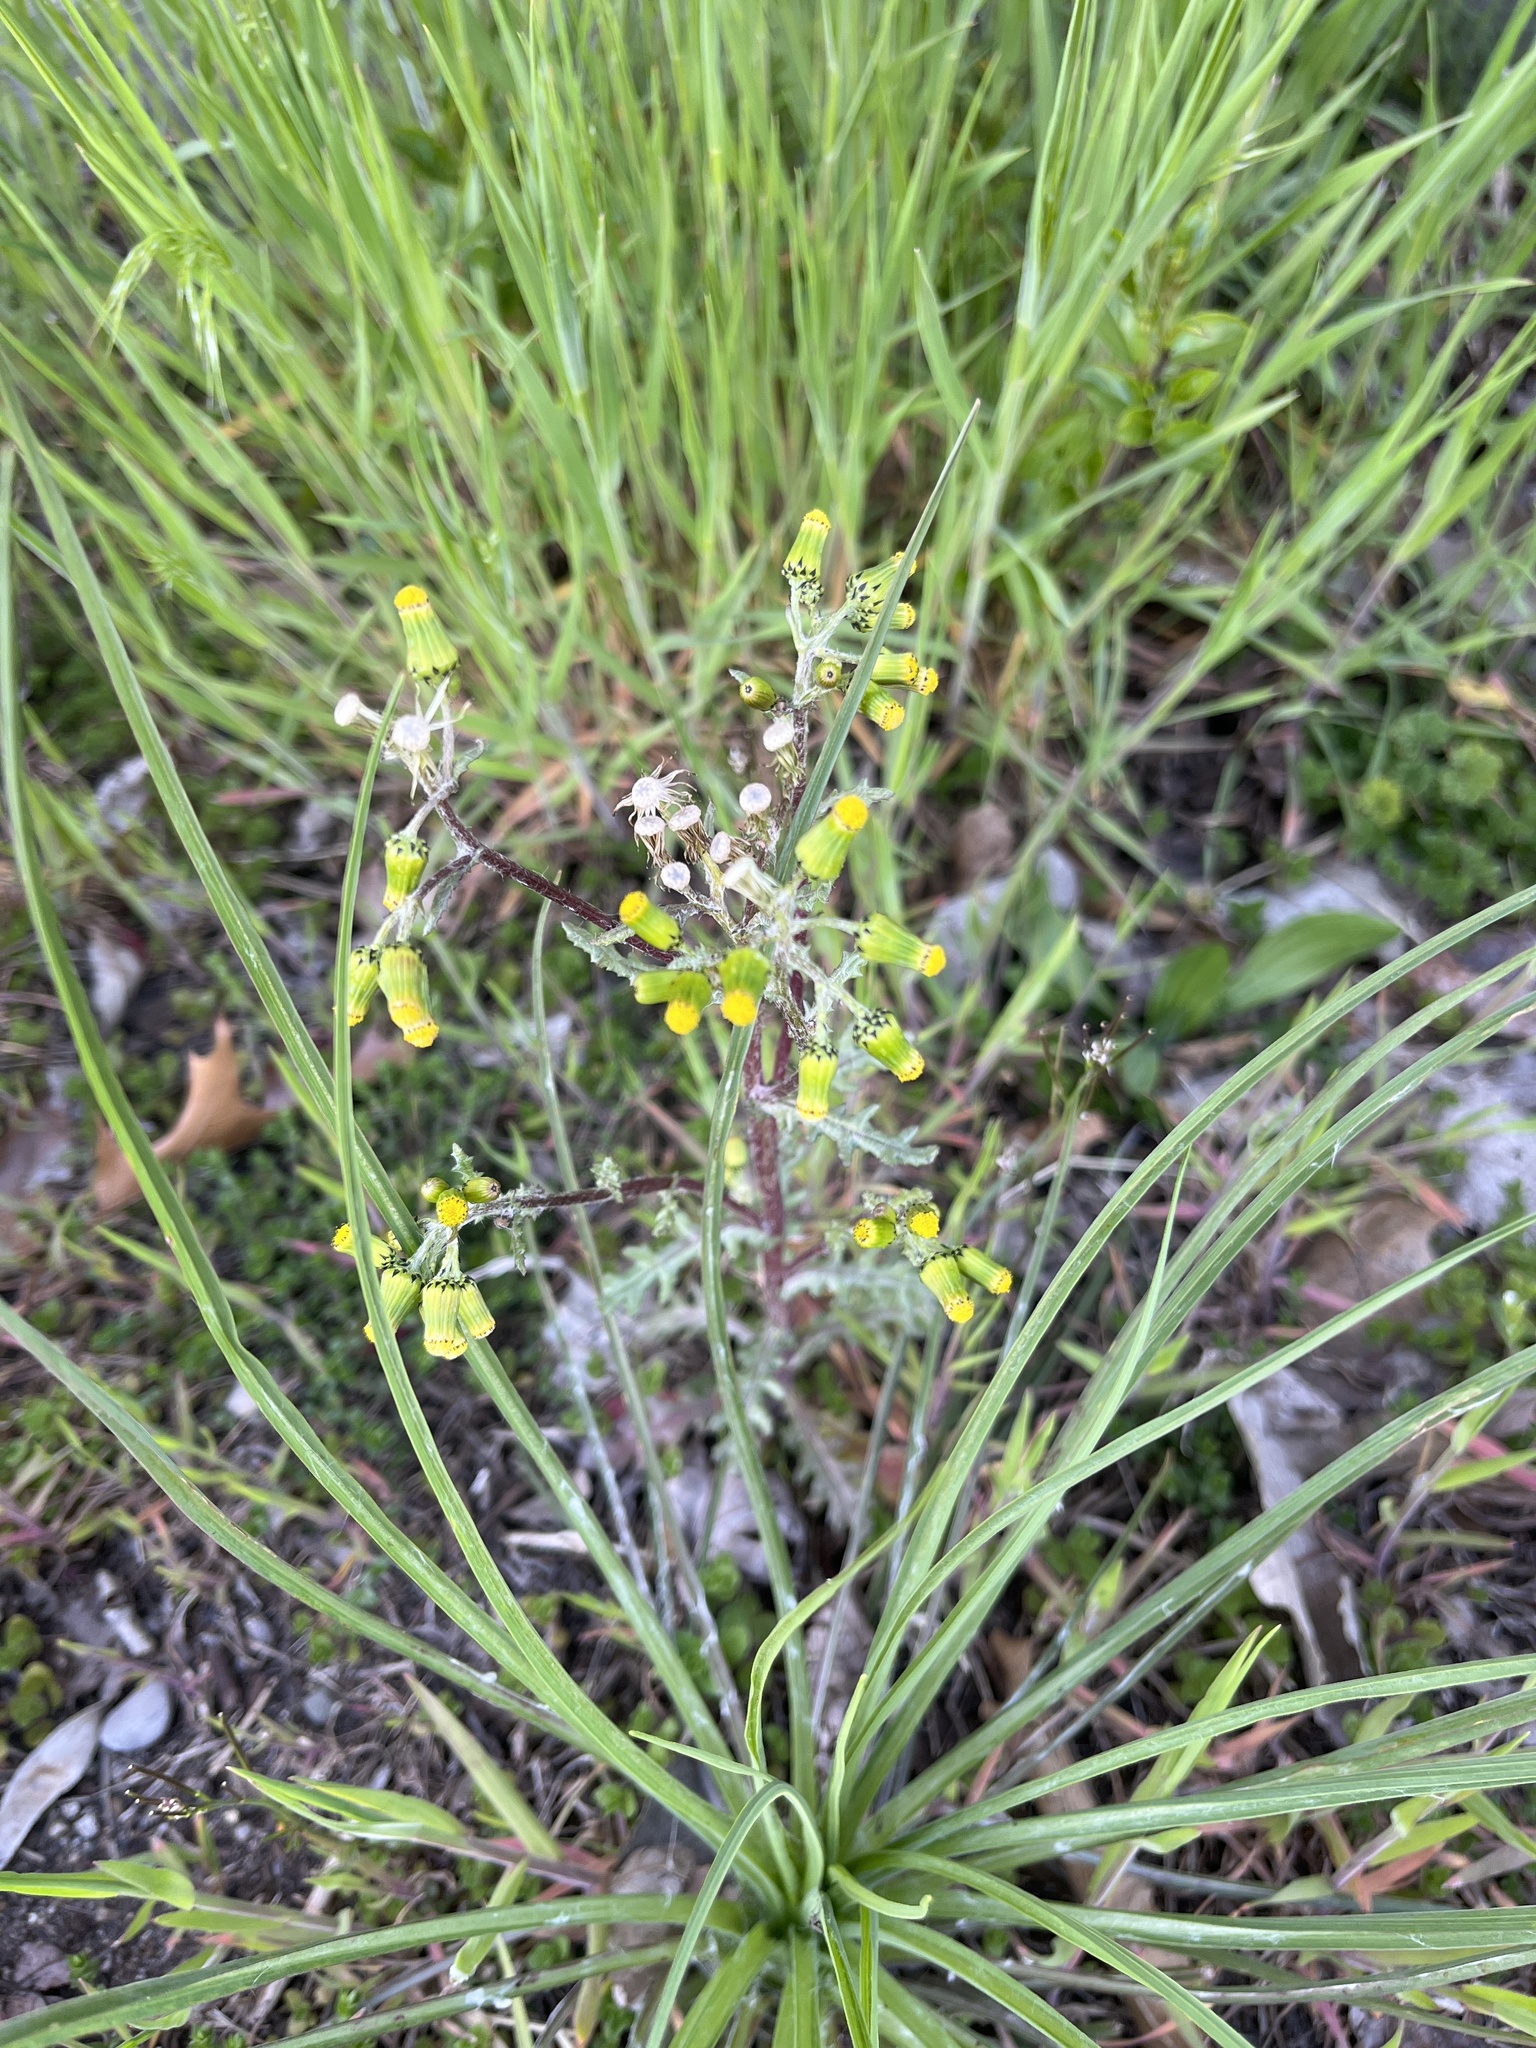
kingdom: Plantae
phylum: Tracheophyta
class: Magnoliopsida
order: Asterales
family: Asteraceae
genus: Senecio
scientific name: Senecio vulgaris
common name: Old-man-in-the-spring
